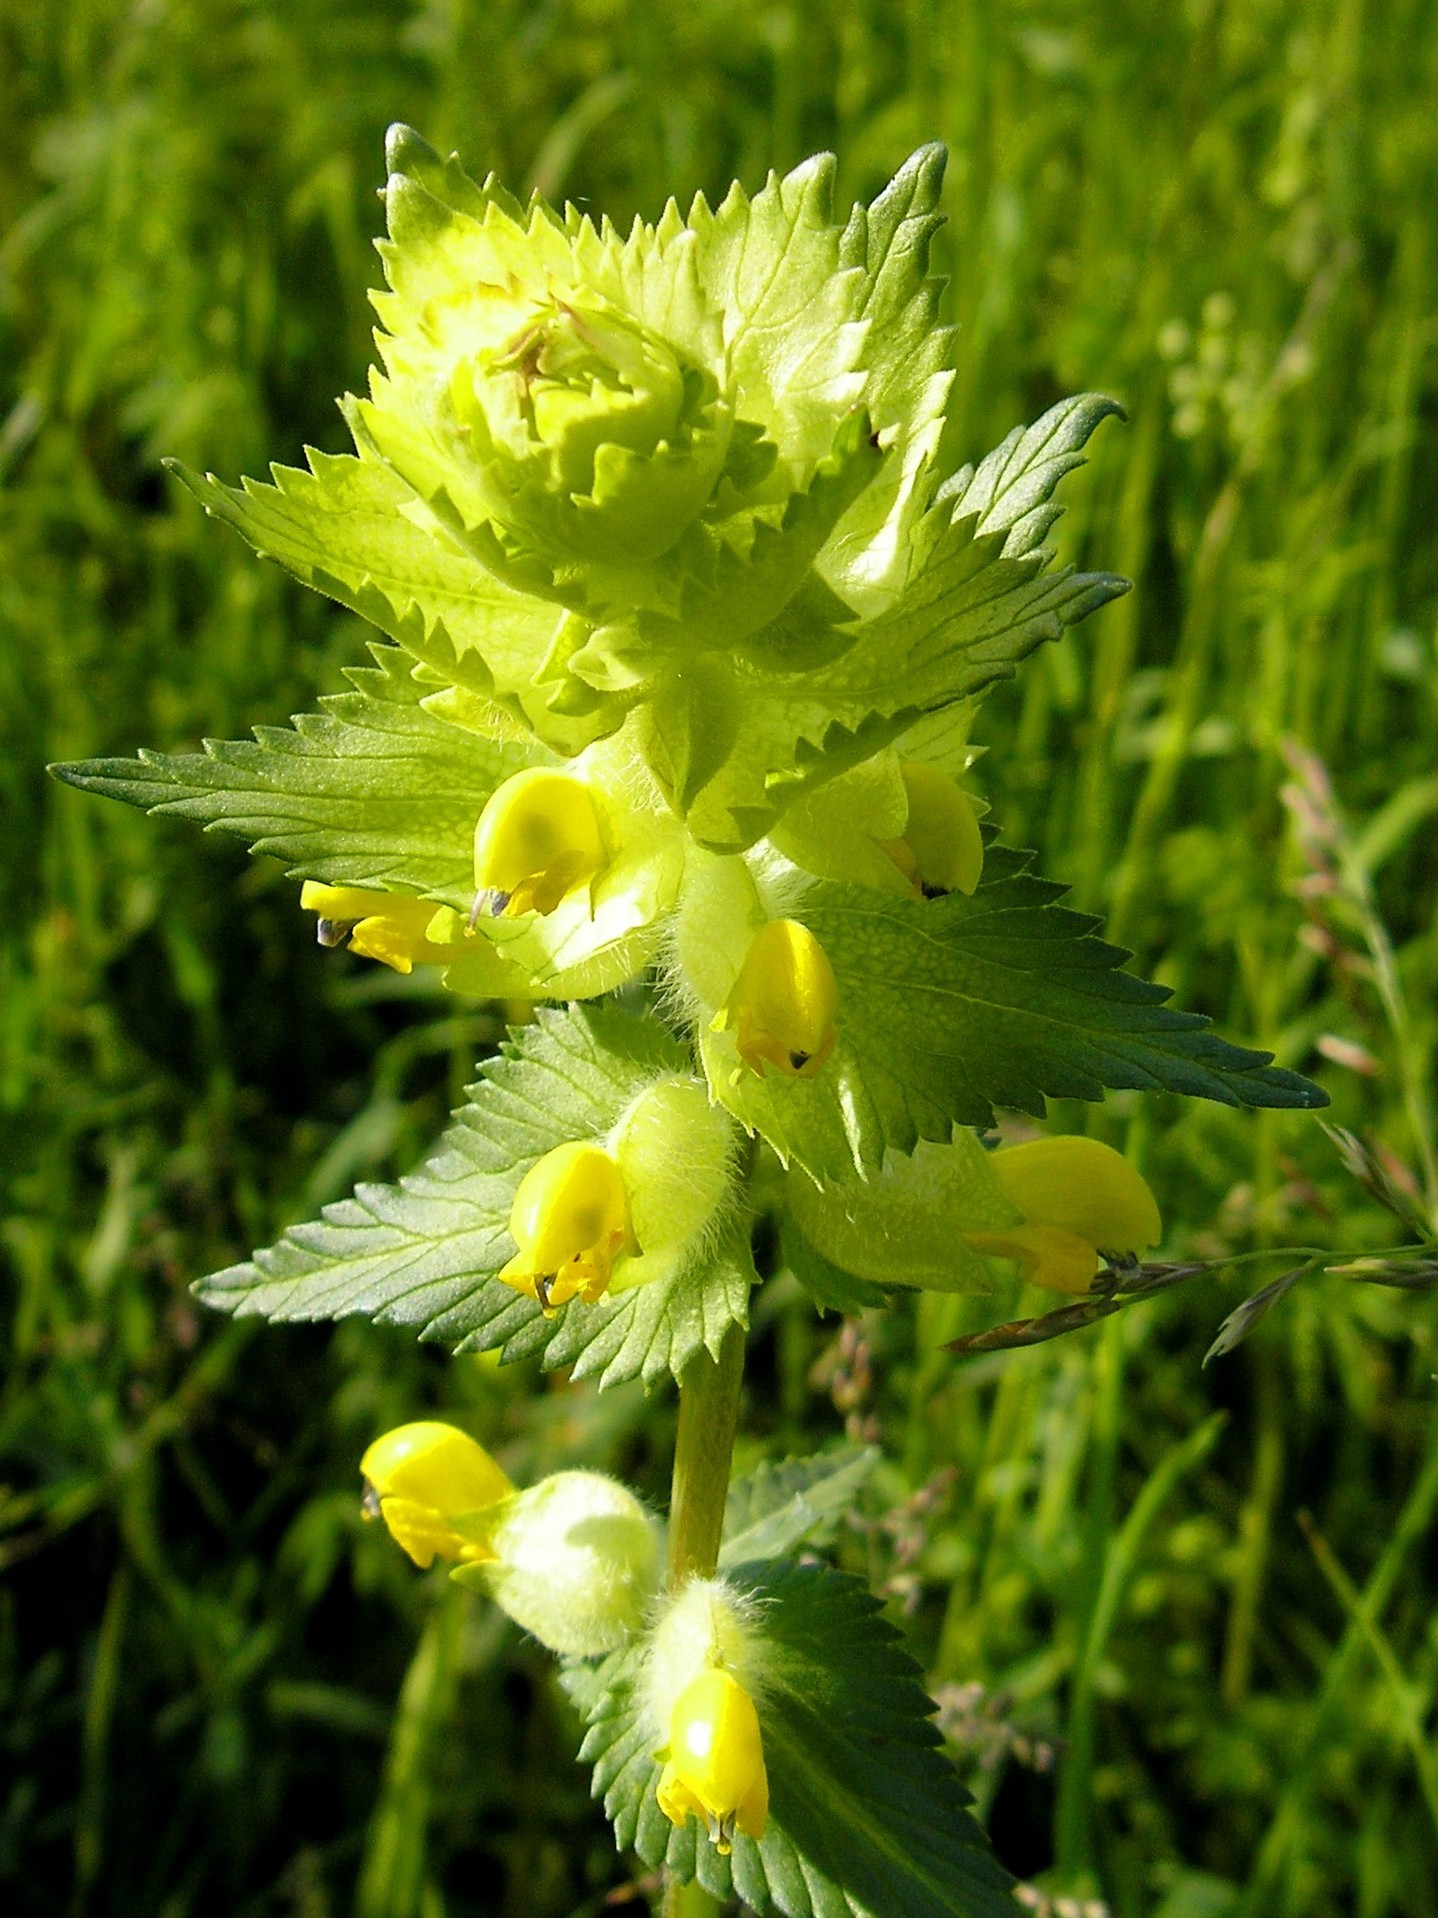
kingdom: Plantae
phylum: Tracheophyta
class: Magnoliopsida
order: Lamiales
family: Orobanchaceae
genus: Rhinanthus
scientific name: Rhinanthus alectorolophus
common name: Greater yellow-rattle
